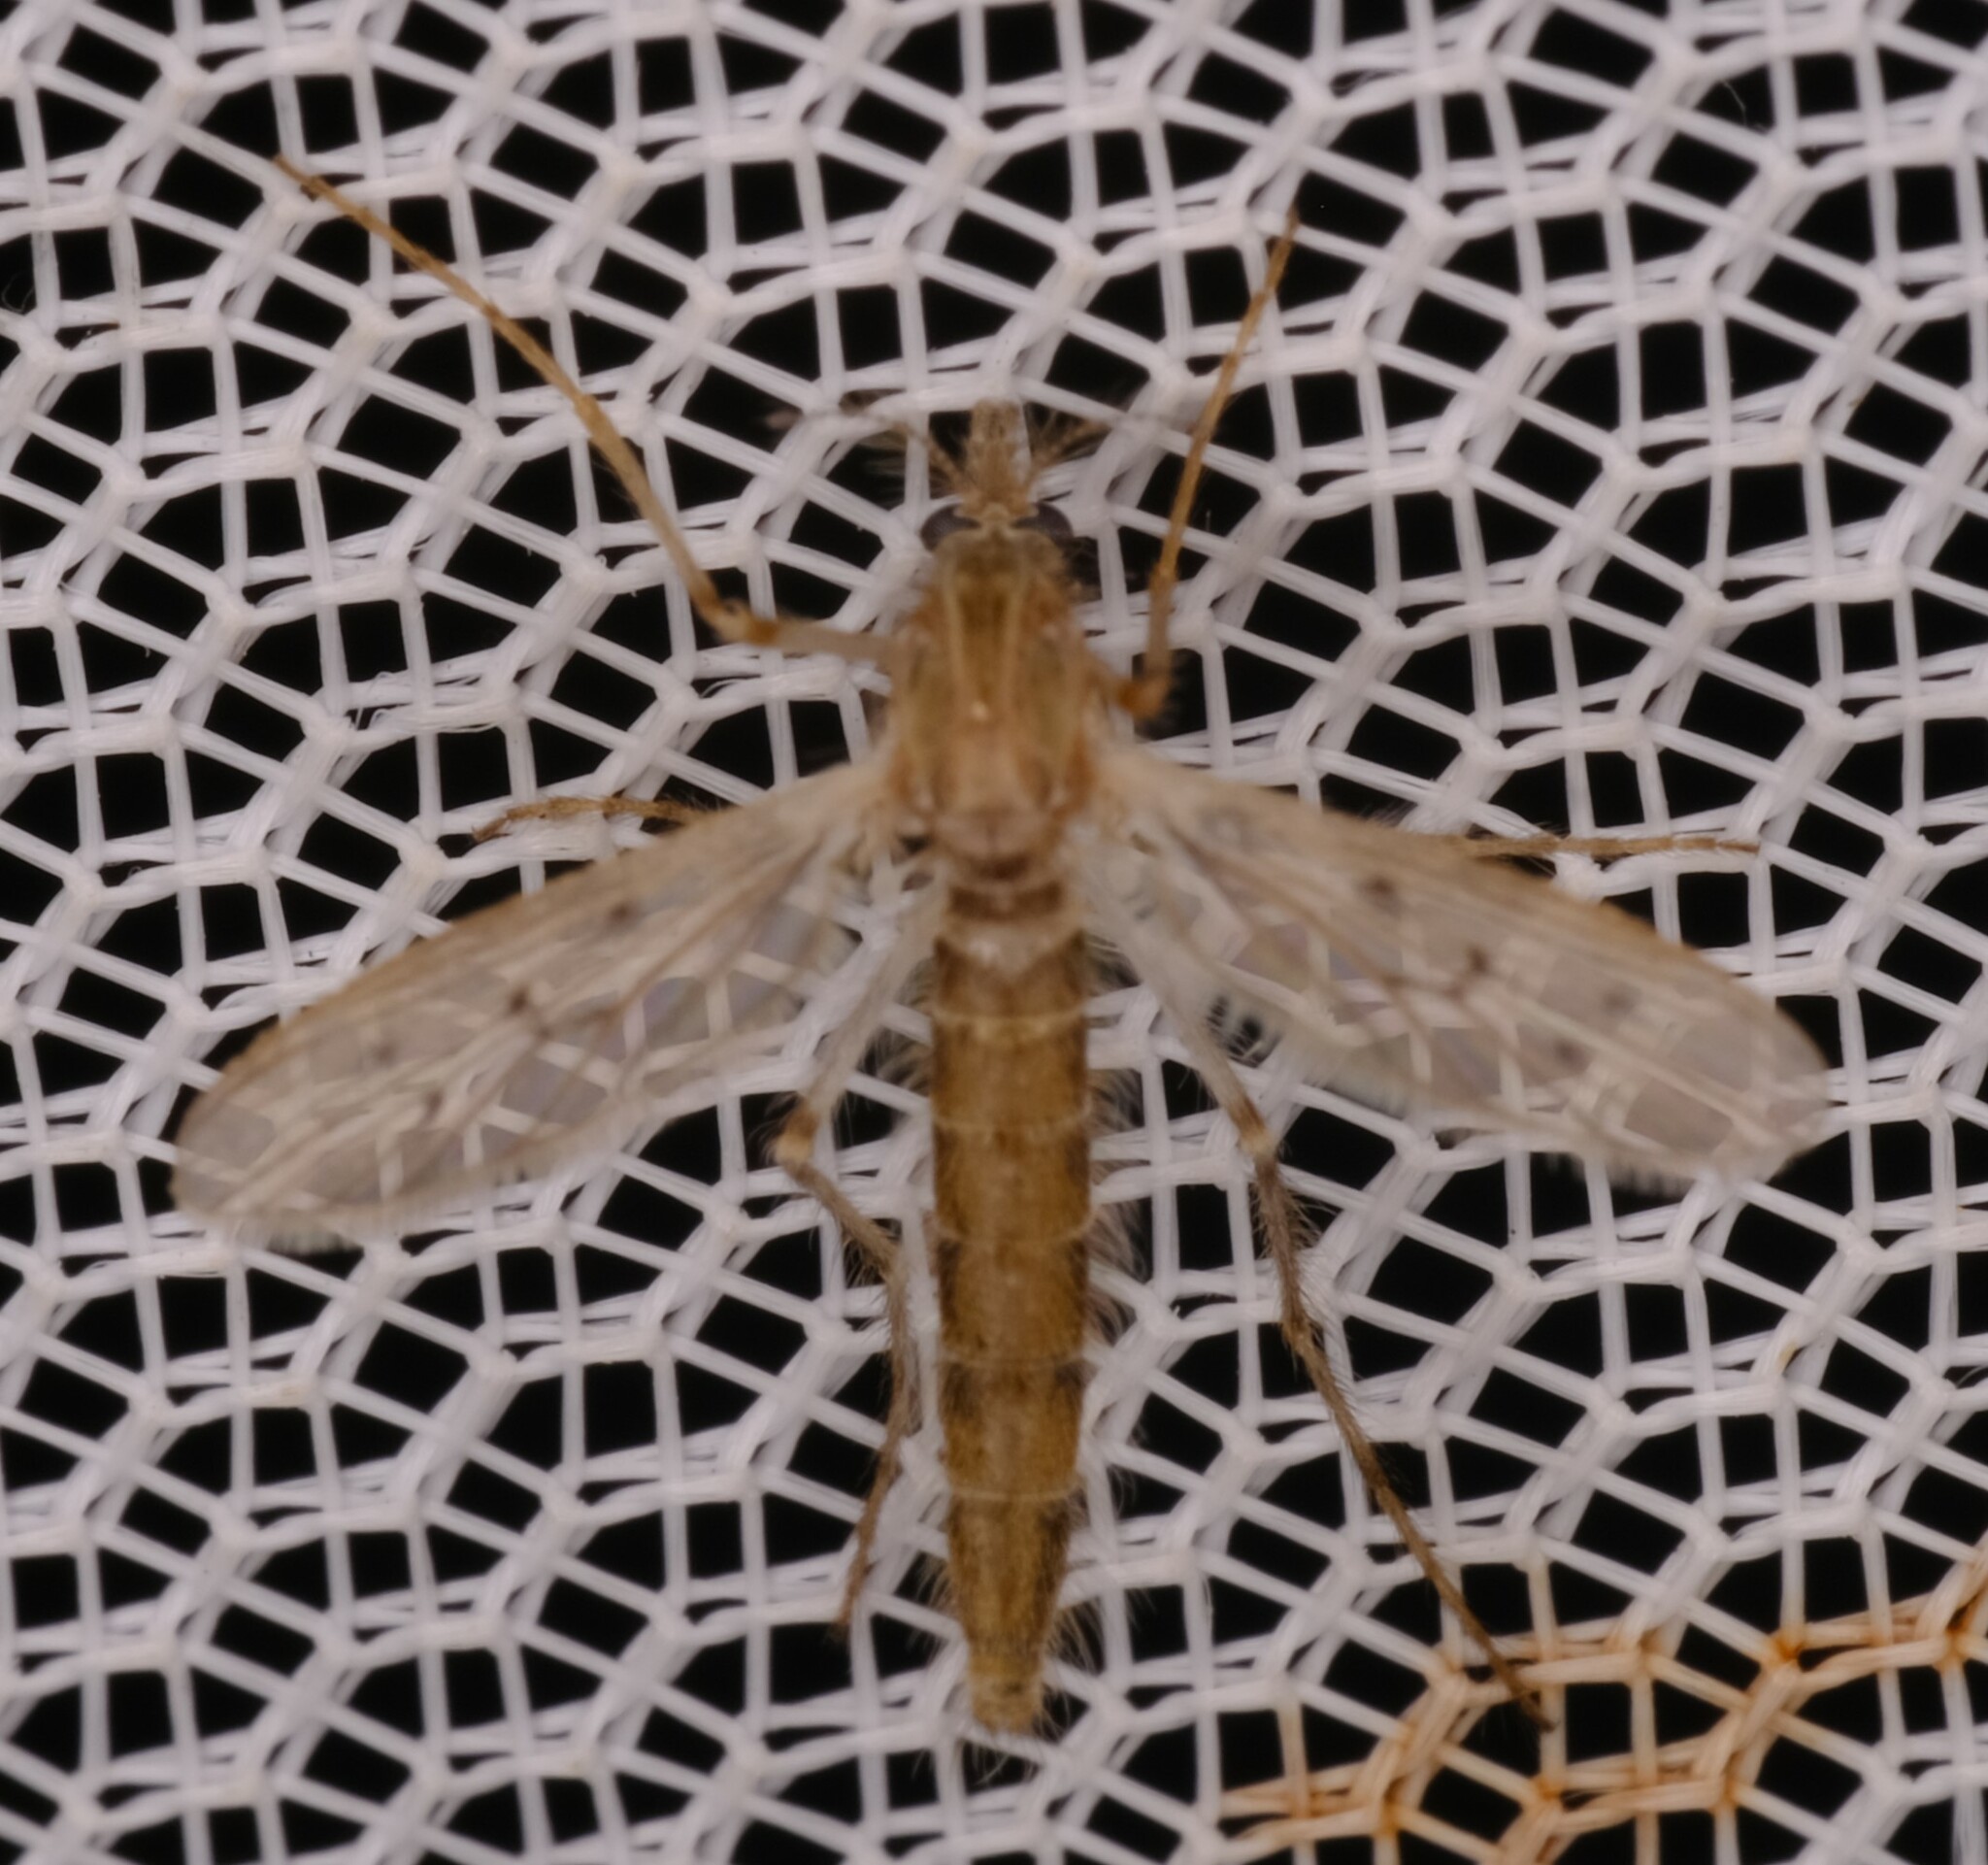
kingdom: Animalia
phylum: Arthropoda
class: Insecta
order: Diptera
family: Chaoboridae
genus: Chaoborus
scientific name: Chaoborus vagus
